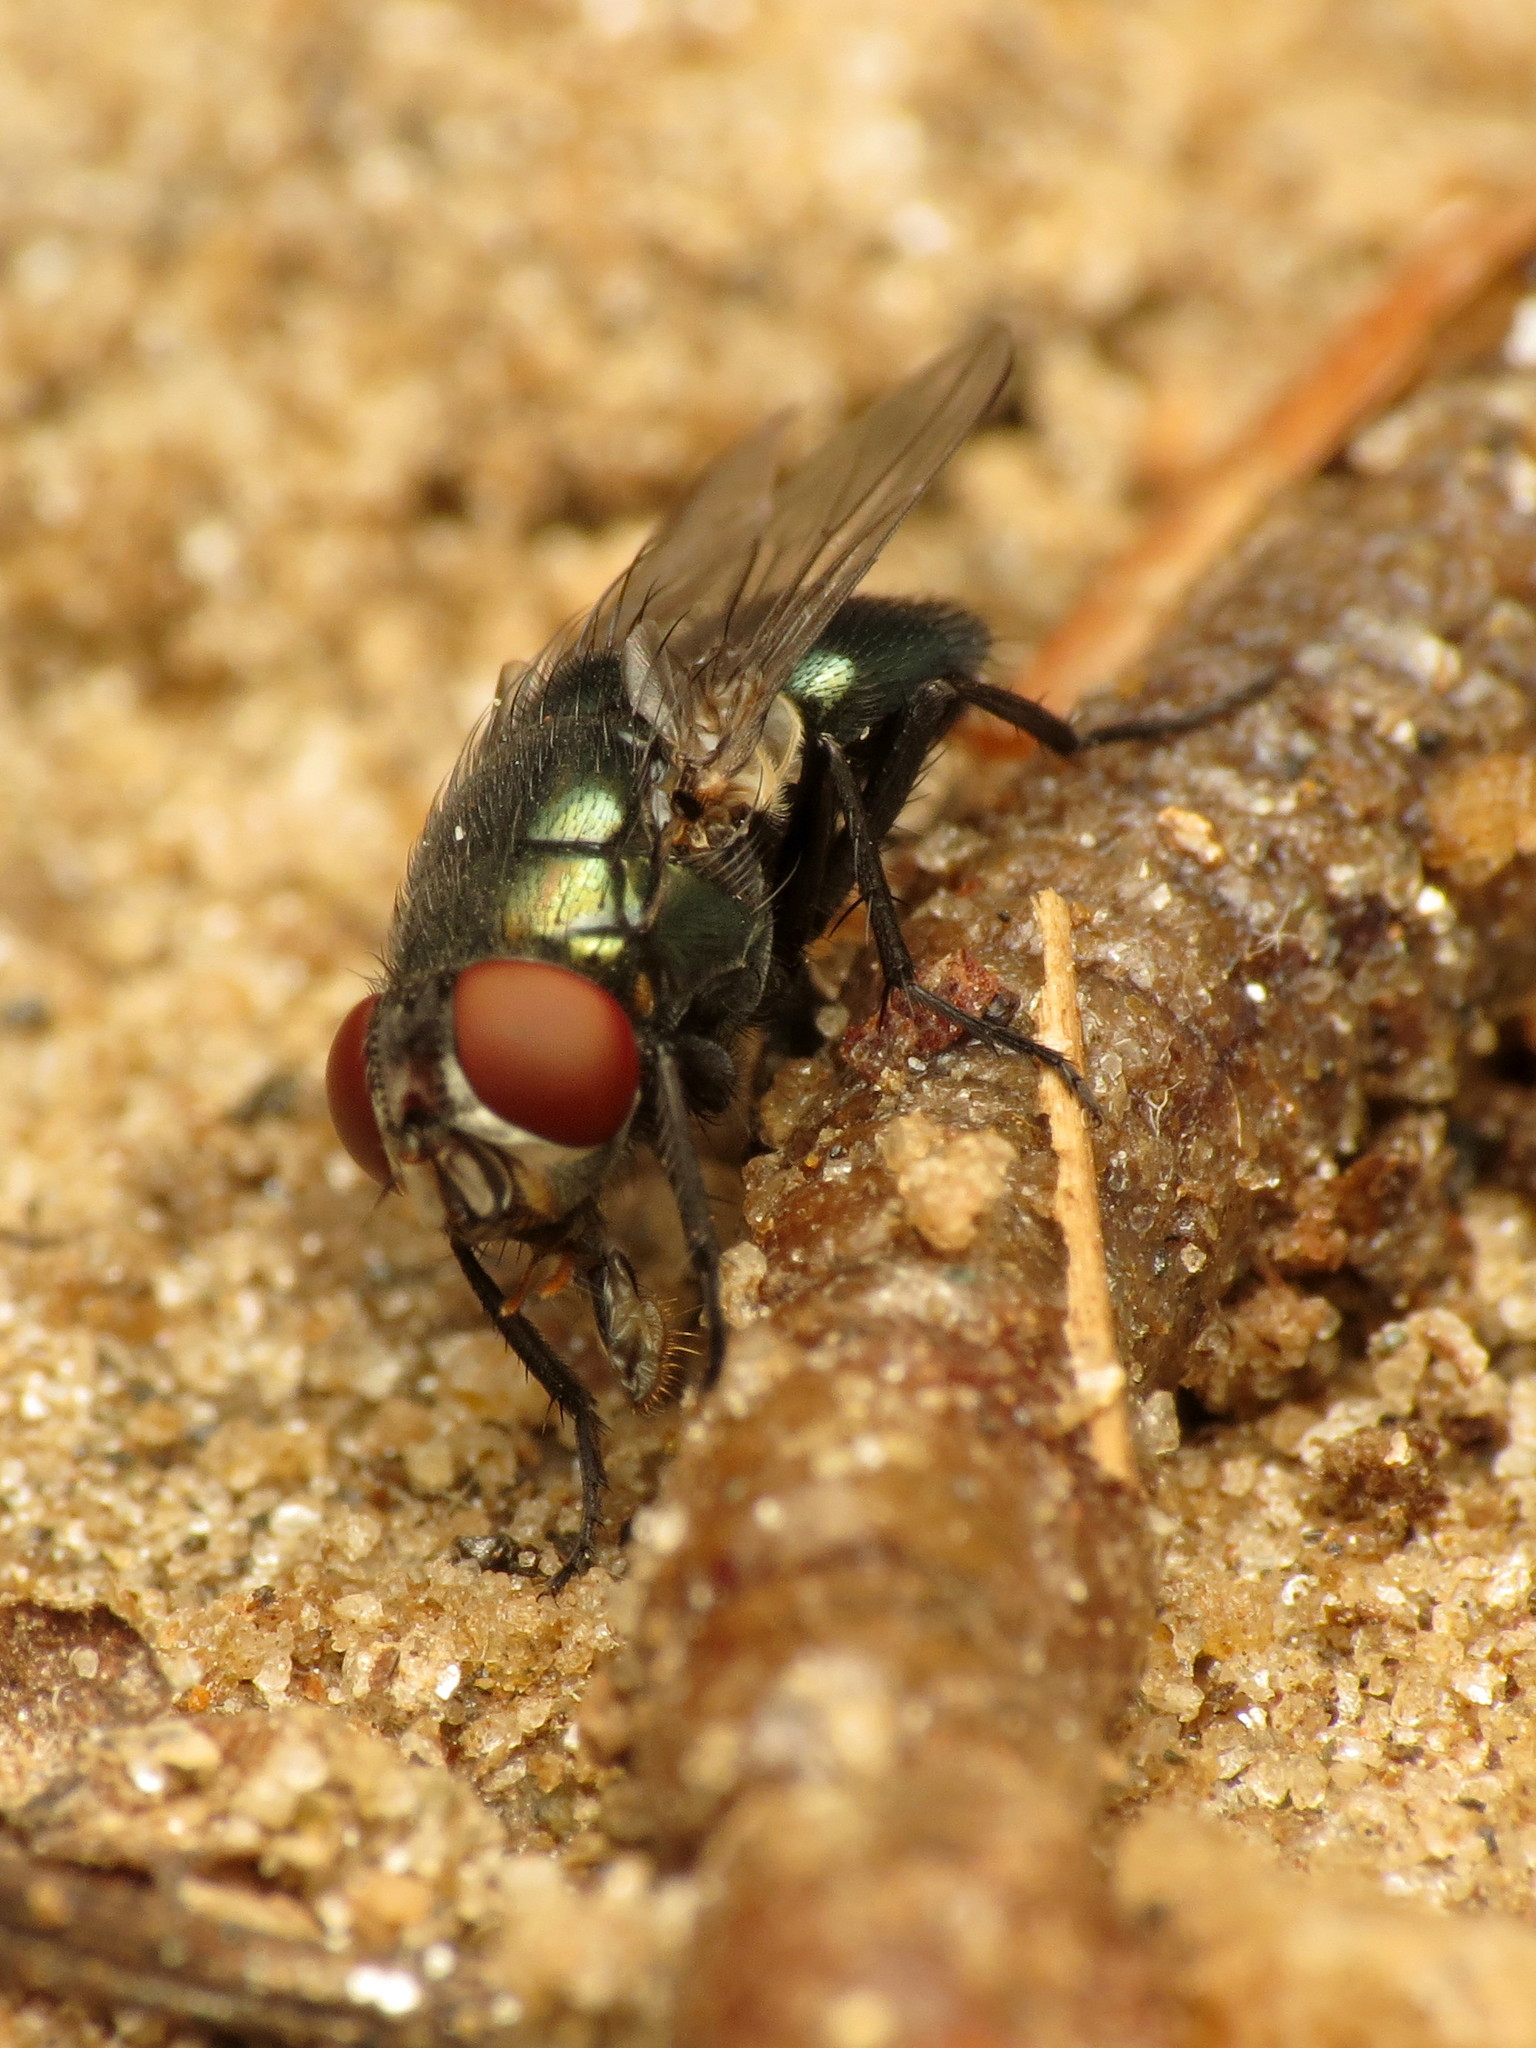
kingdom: Animalia
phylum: Arthropoda
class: Insecta
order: Diptera
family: Calliphoridae
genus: Phormia
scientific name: Phormia regina
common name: Black blow fly
